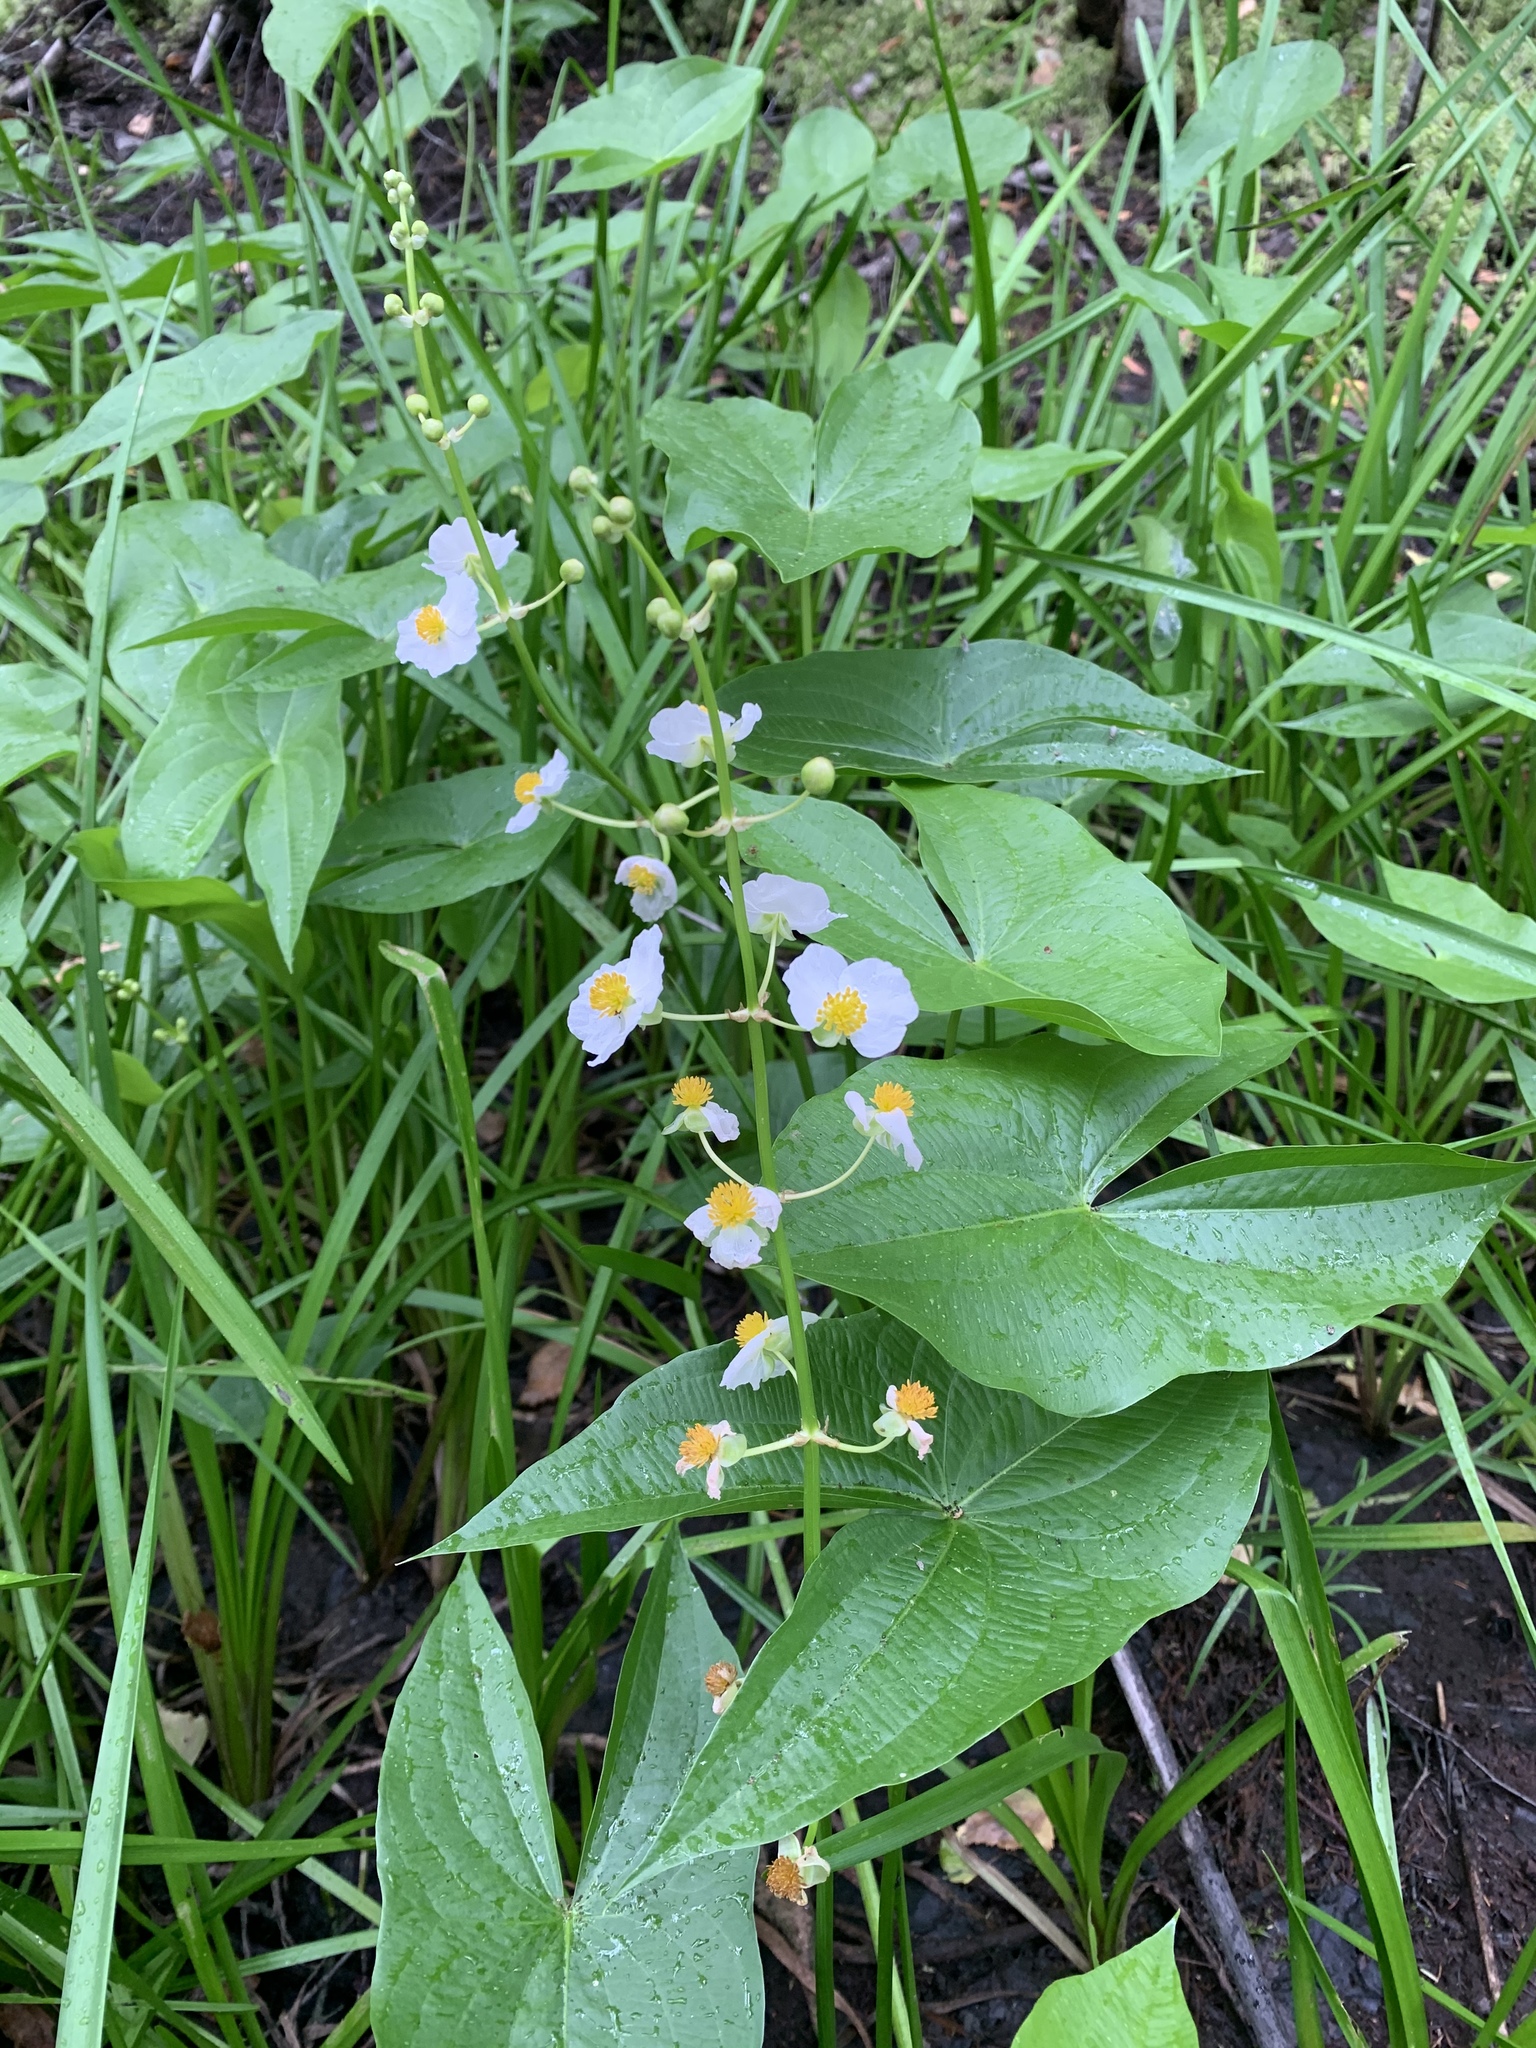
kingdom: Plantae
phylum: Tracheophyta
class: Liliopsida
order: Alismatales
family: Alismataceae
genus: Sagittaria
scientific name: Sagittaria latifolia
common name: Duck-potato
